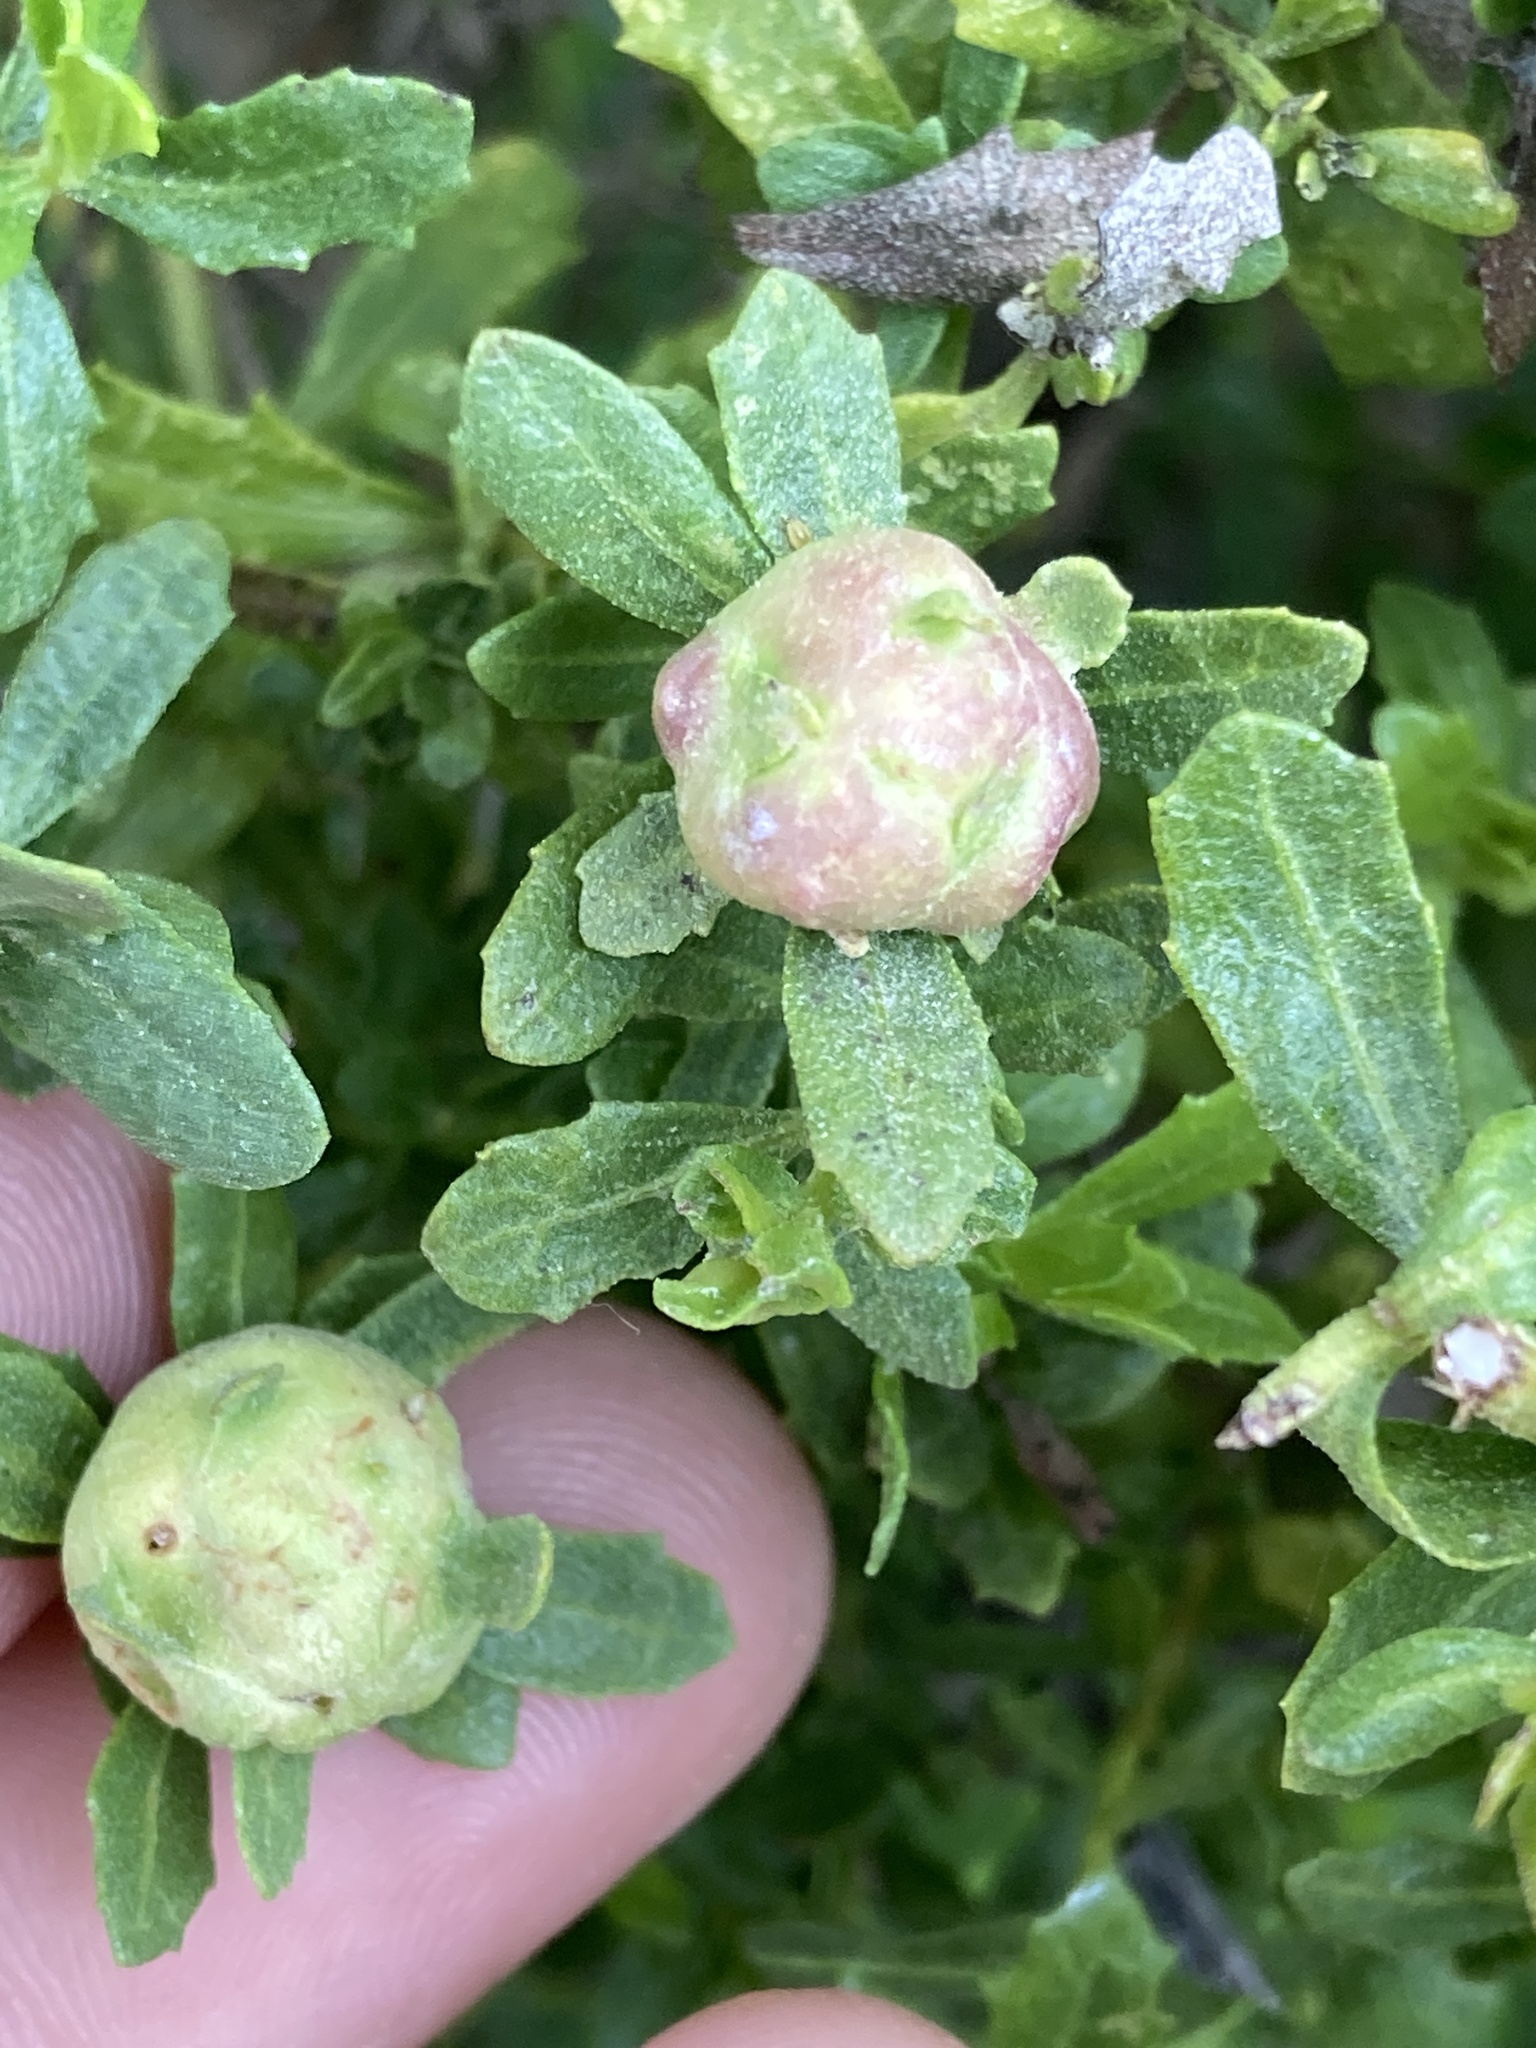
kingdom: Animalia
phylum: Arthropoda
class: Insecta
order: Diptera
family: Cecidomyiidae
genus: Rhopalomyia
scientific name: Rhopalomyia californica
